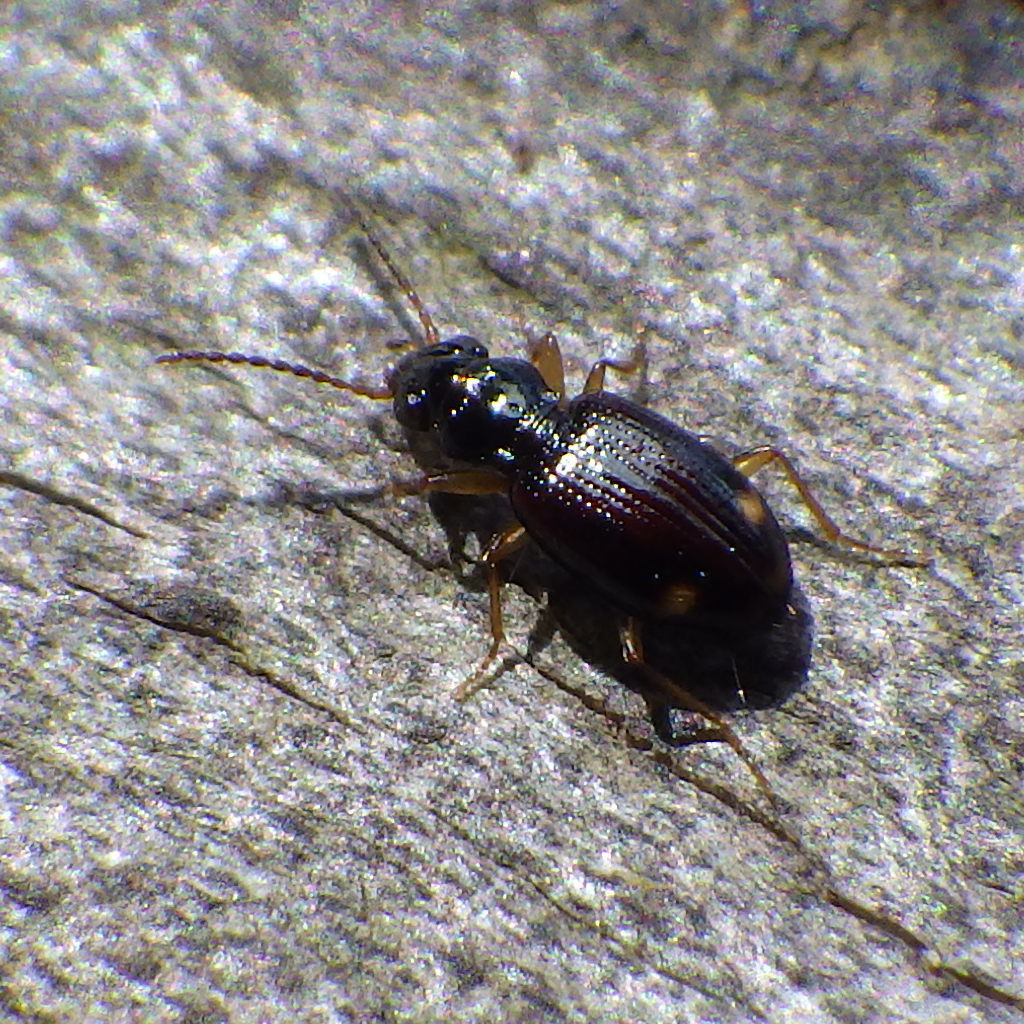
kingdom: Animalia
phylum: Arthropoda
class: Insecta
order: Coleoptera
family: Carabidae
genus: Bembidion
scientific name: Bembidion frontale
